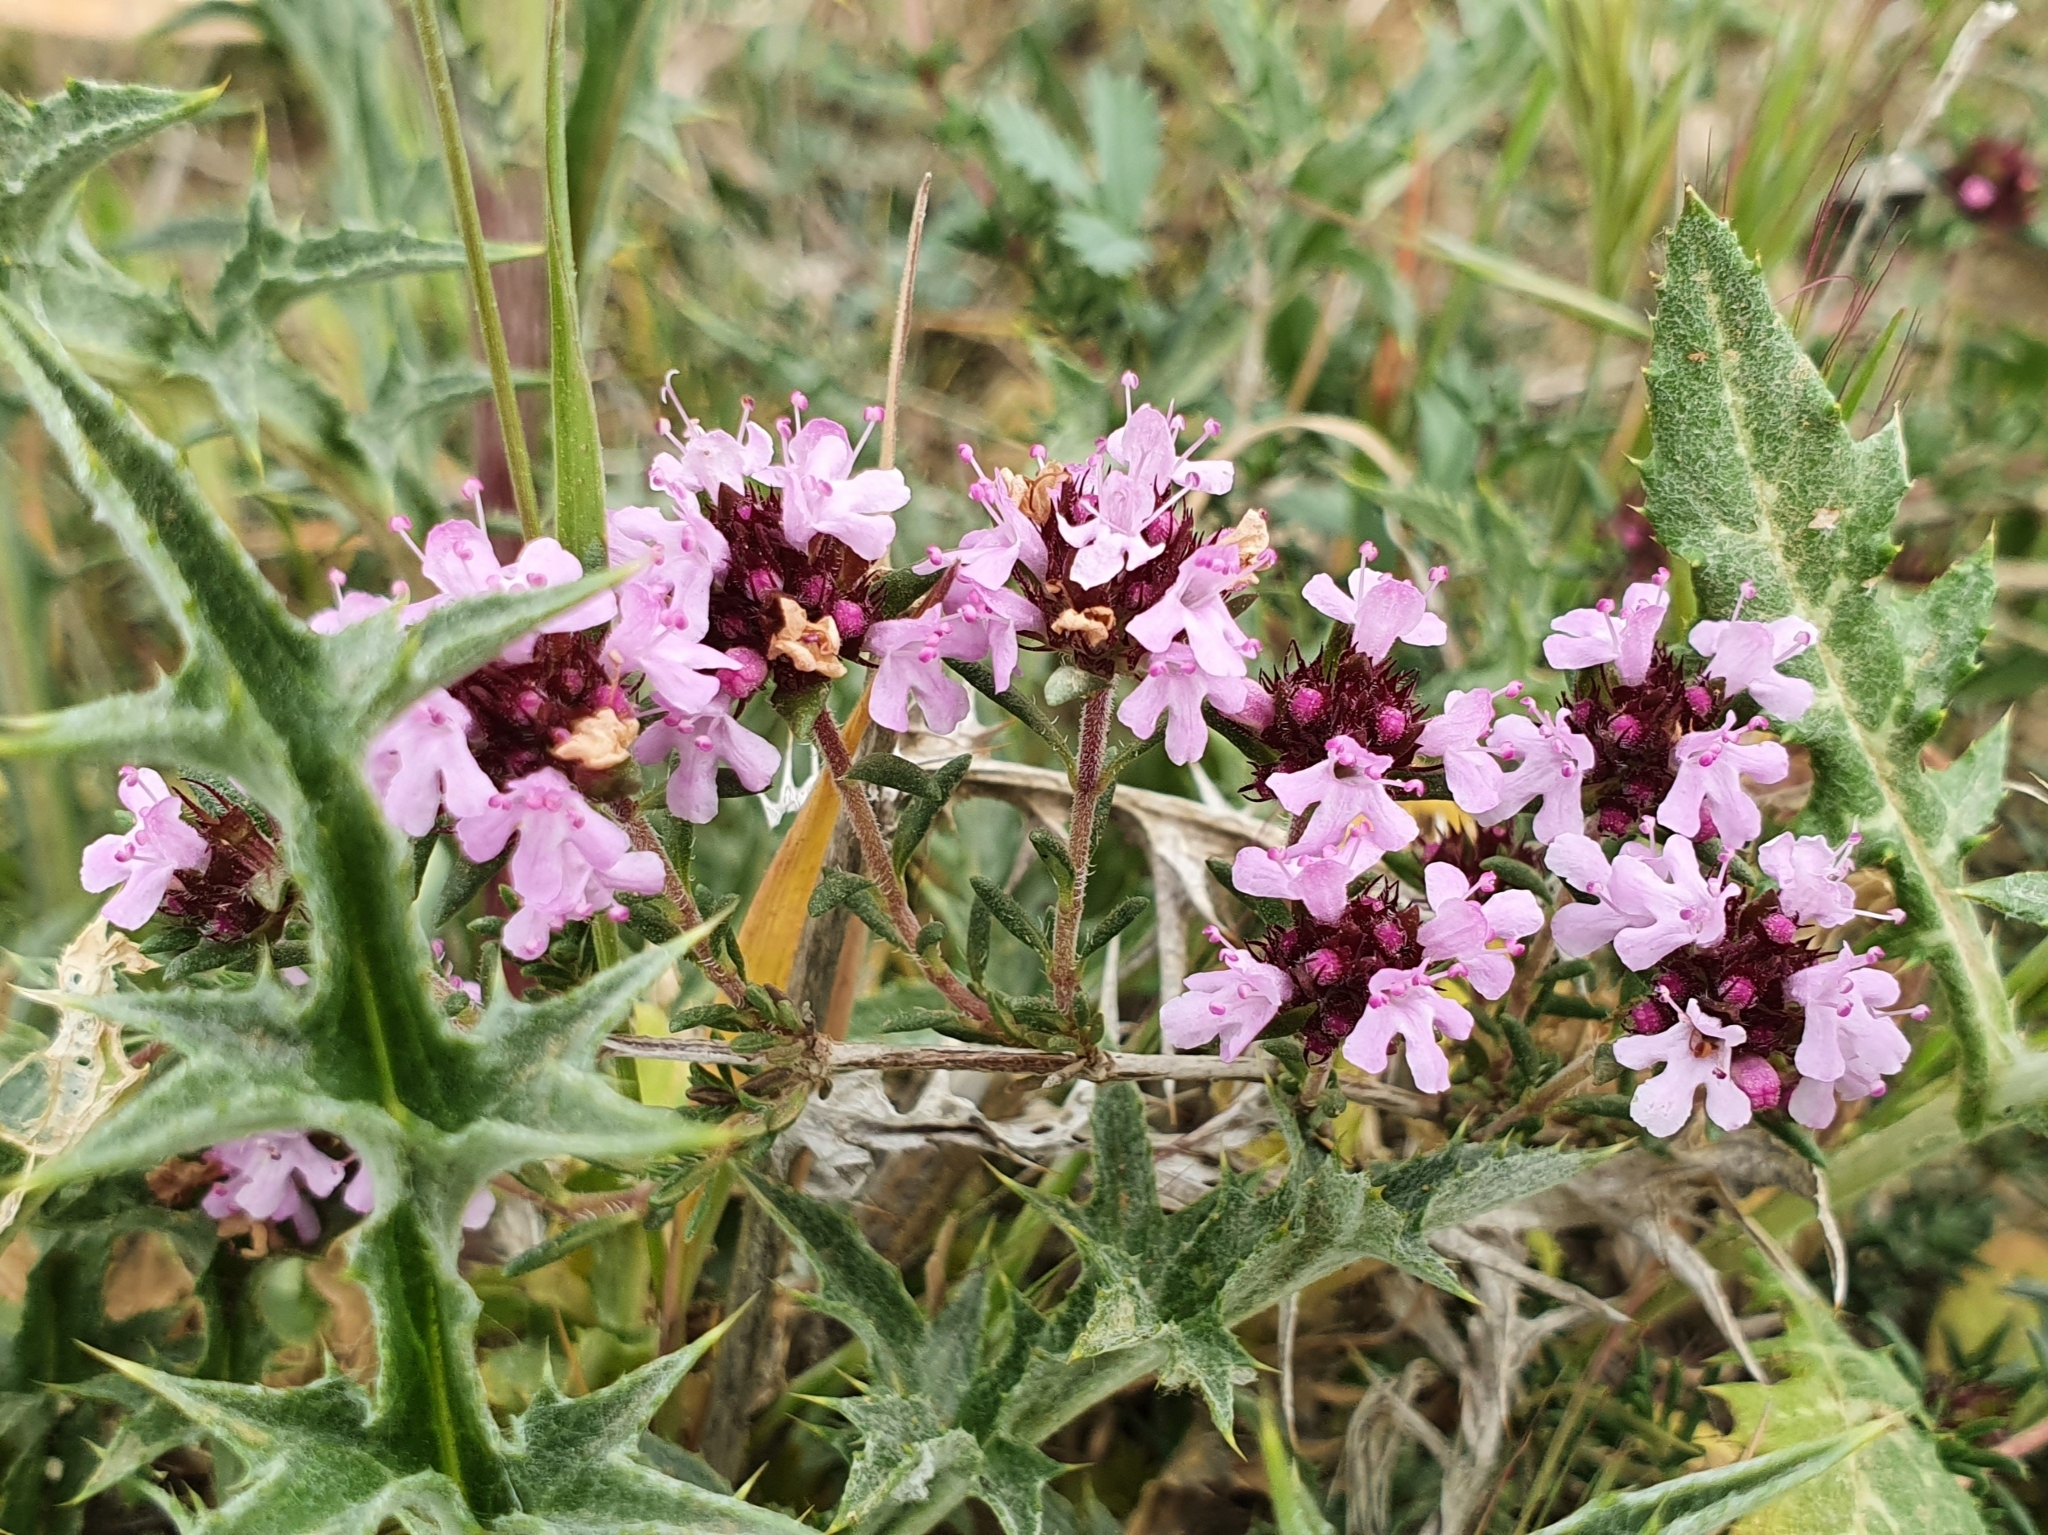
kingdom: Plantae
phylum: Tracheophyta
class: Magnoliopsida
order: Lamiales
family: Lamiaceae
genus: Thymus
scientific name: Thymus willdenowii
